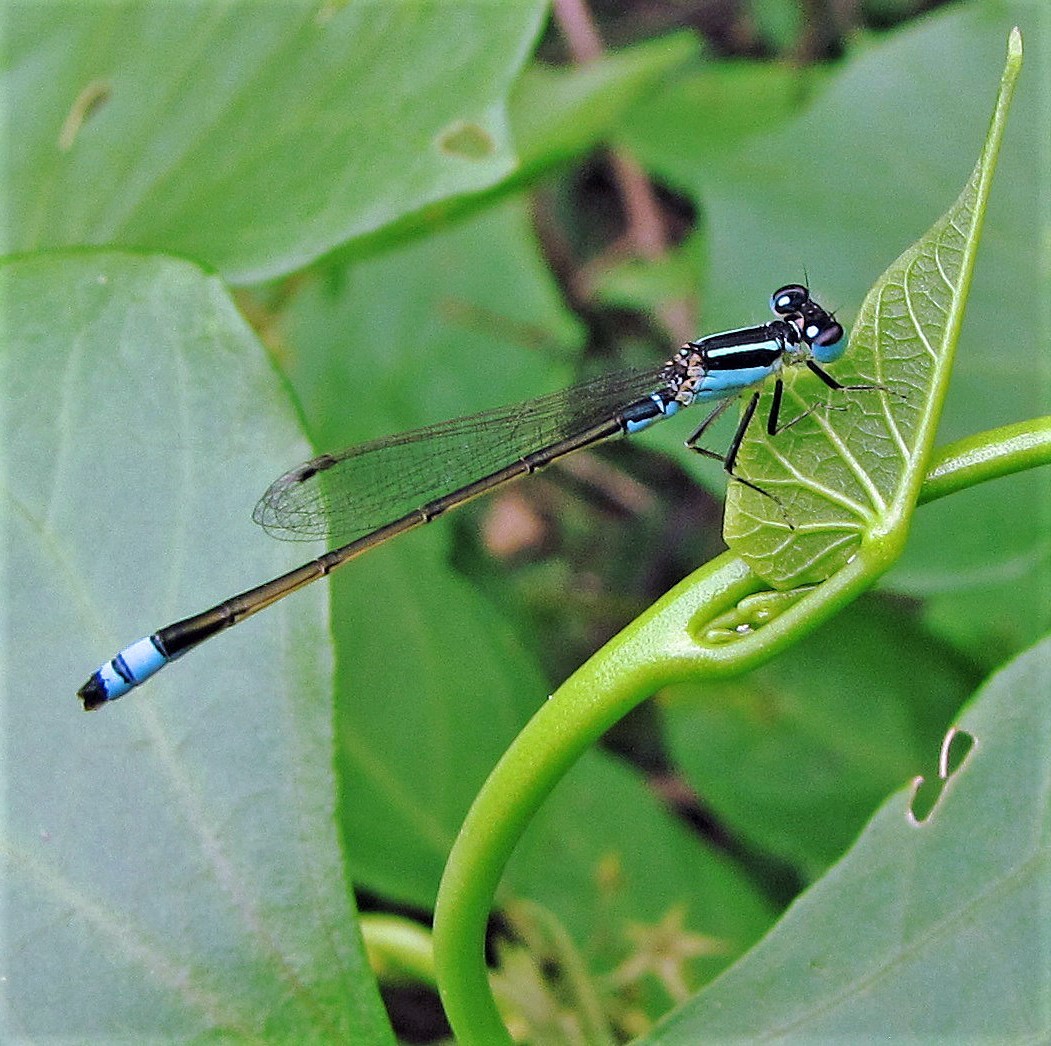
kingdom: Animalia
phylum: Arthropoda
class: Insecta
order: Odonata
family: Coenagrionidae
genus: Ischnura
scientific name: Ischnura fluviatilis
